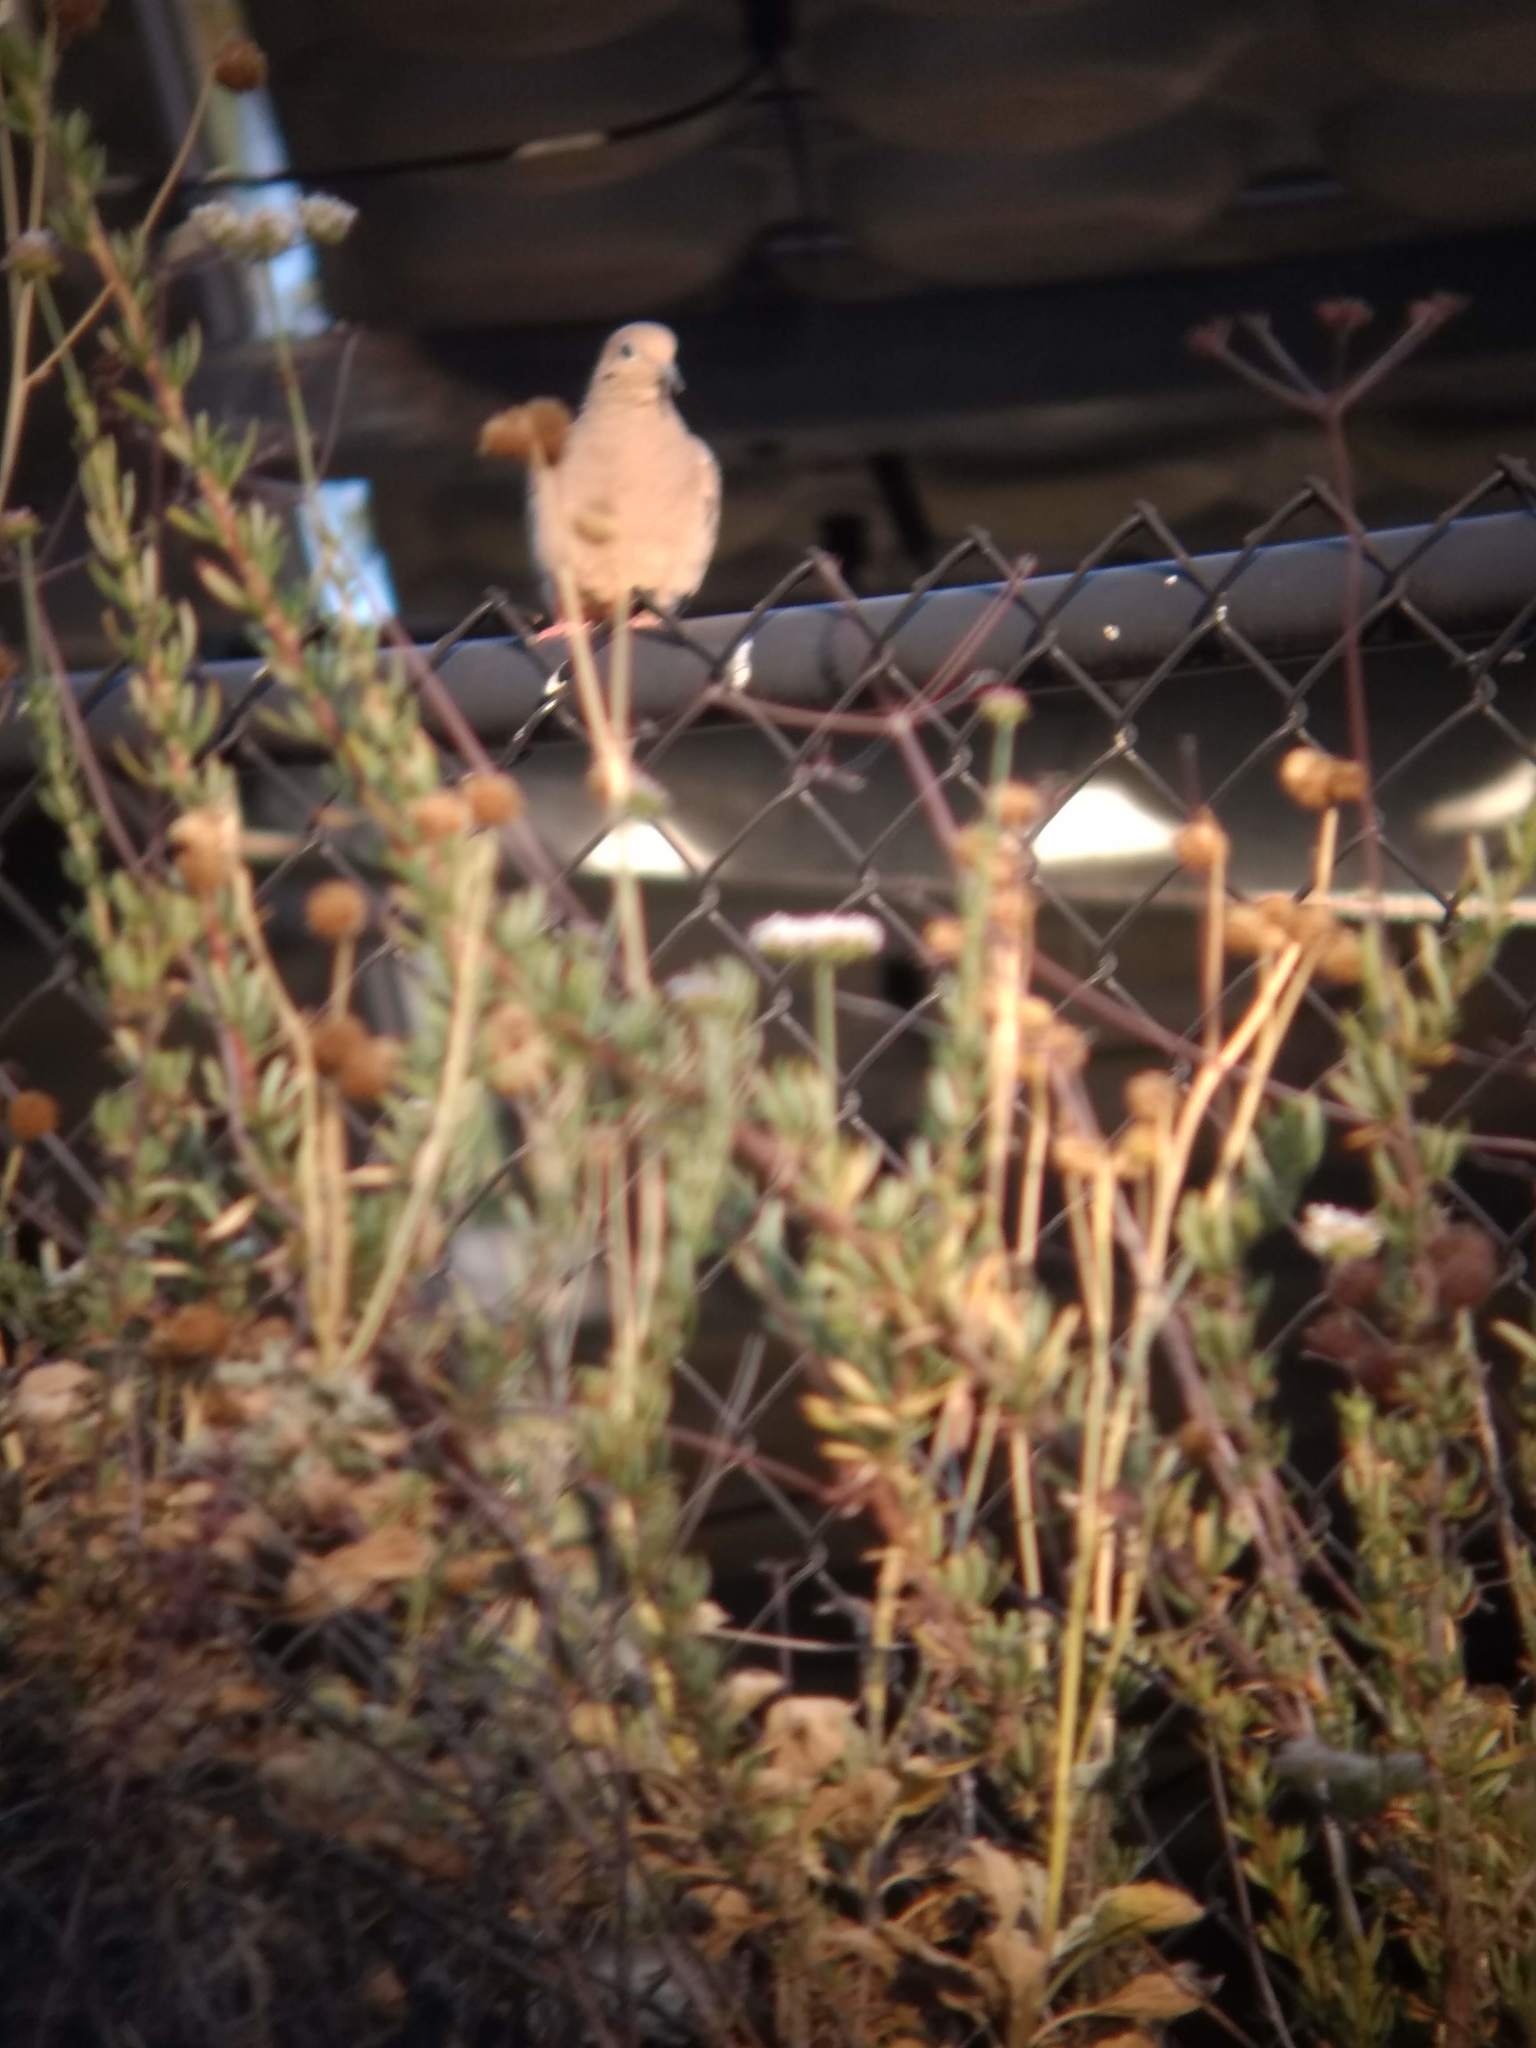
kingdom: Animalia
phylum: Chordata
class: Aves
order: Columbiformes
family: Columbidae
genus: Zenaida
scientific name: Zenaida macroura
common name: Mourning dove
